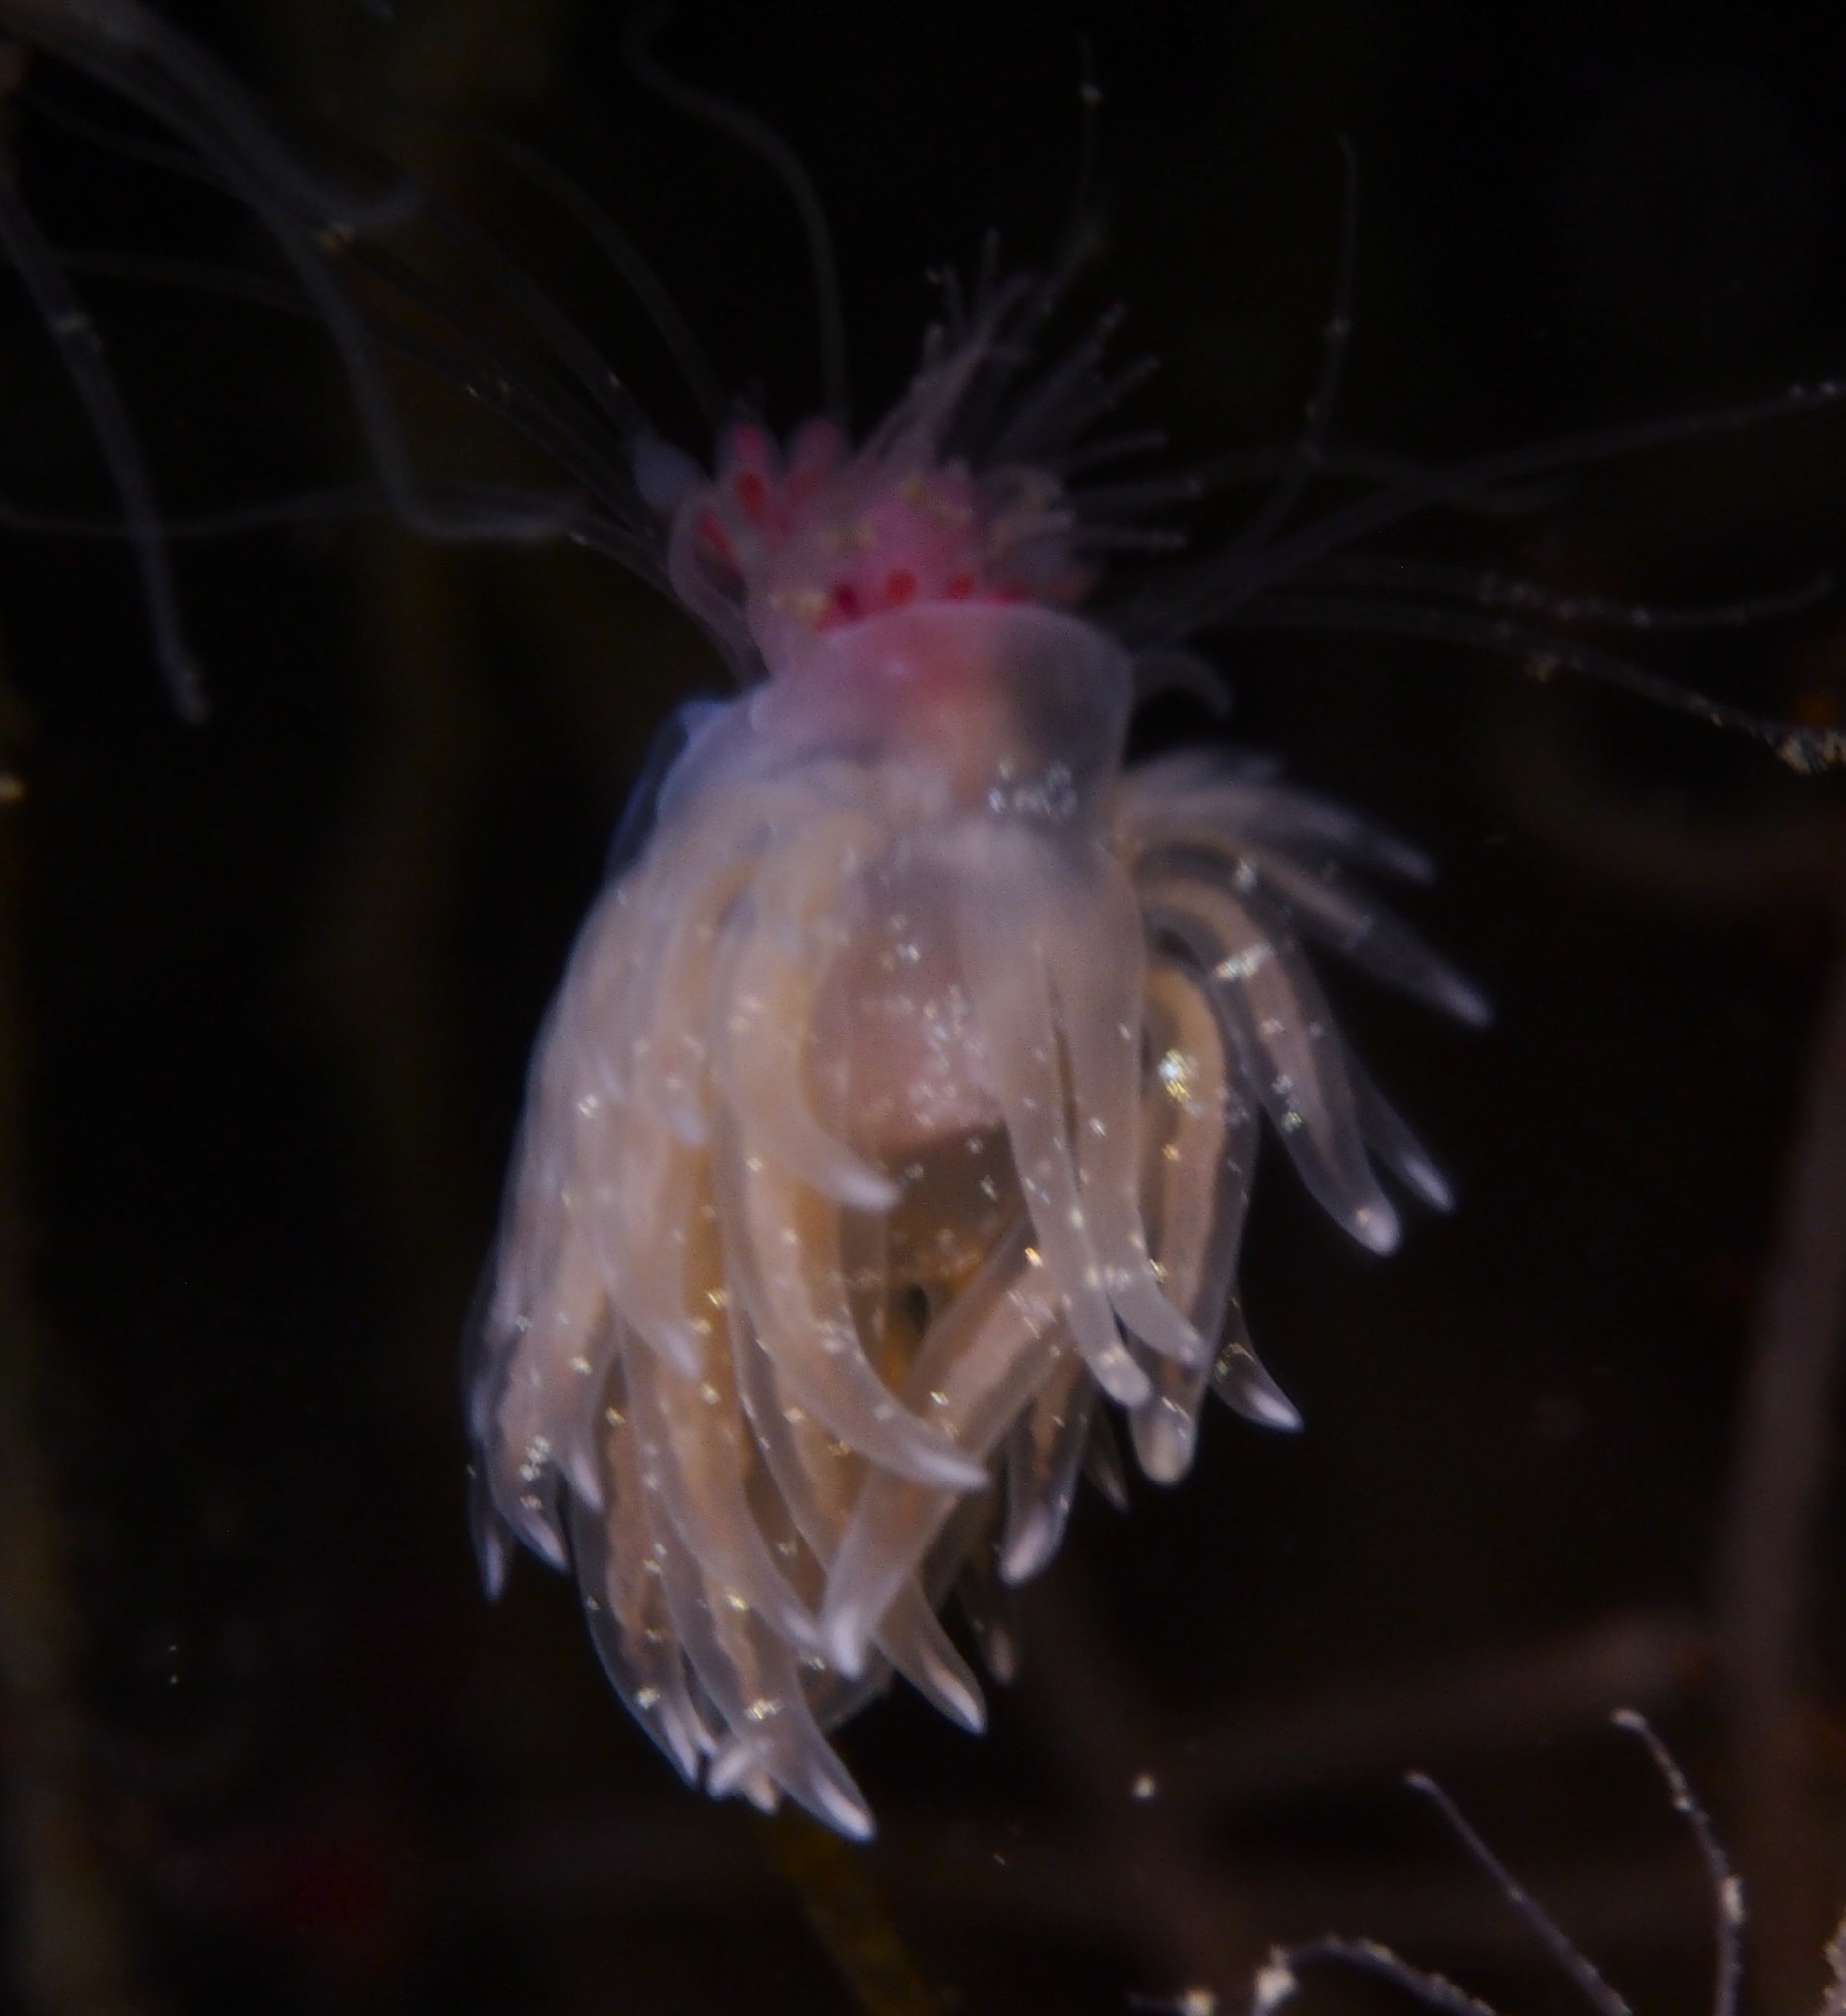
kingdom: Animalia
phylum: Mollusca
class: Gastropoda
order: Nudibranchia
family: Cumanotidae
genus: Cumanotus
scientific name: Cumanotus beaumonti
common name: Polyp aeolis
